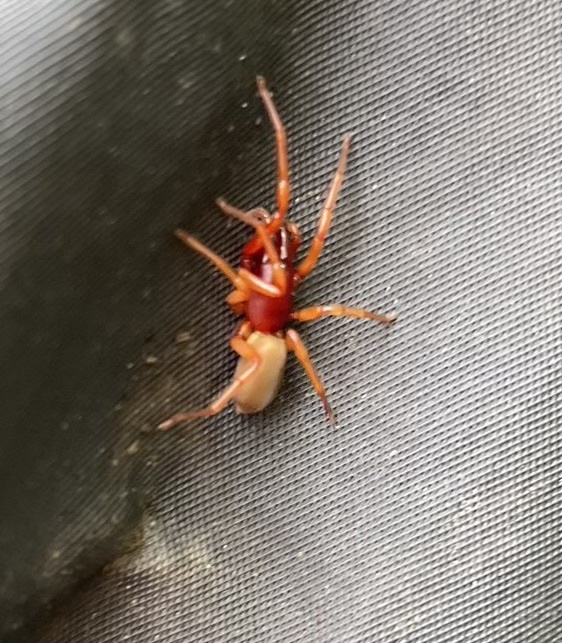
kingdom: Animalia
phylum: Arthropoda
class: Arachnida
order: Araneae
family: Dysderidae
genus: Dysdera
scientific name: Dysdera crocata
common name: Woodlouse spider
